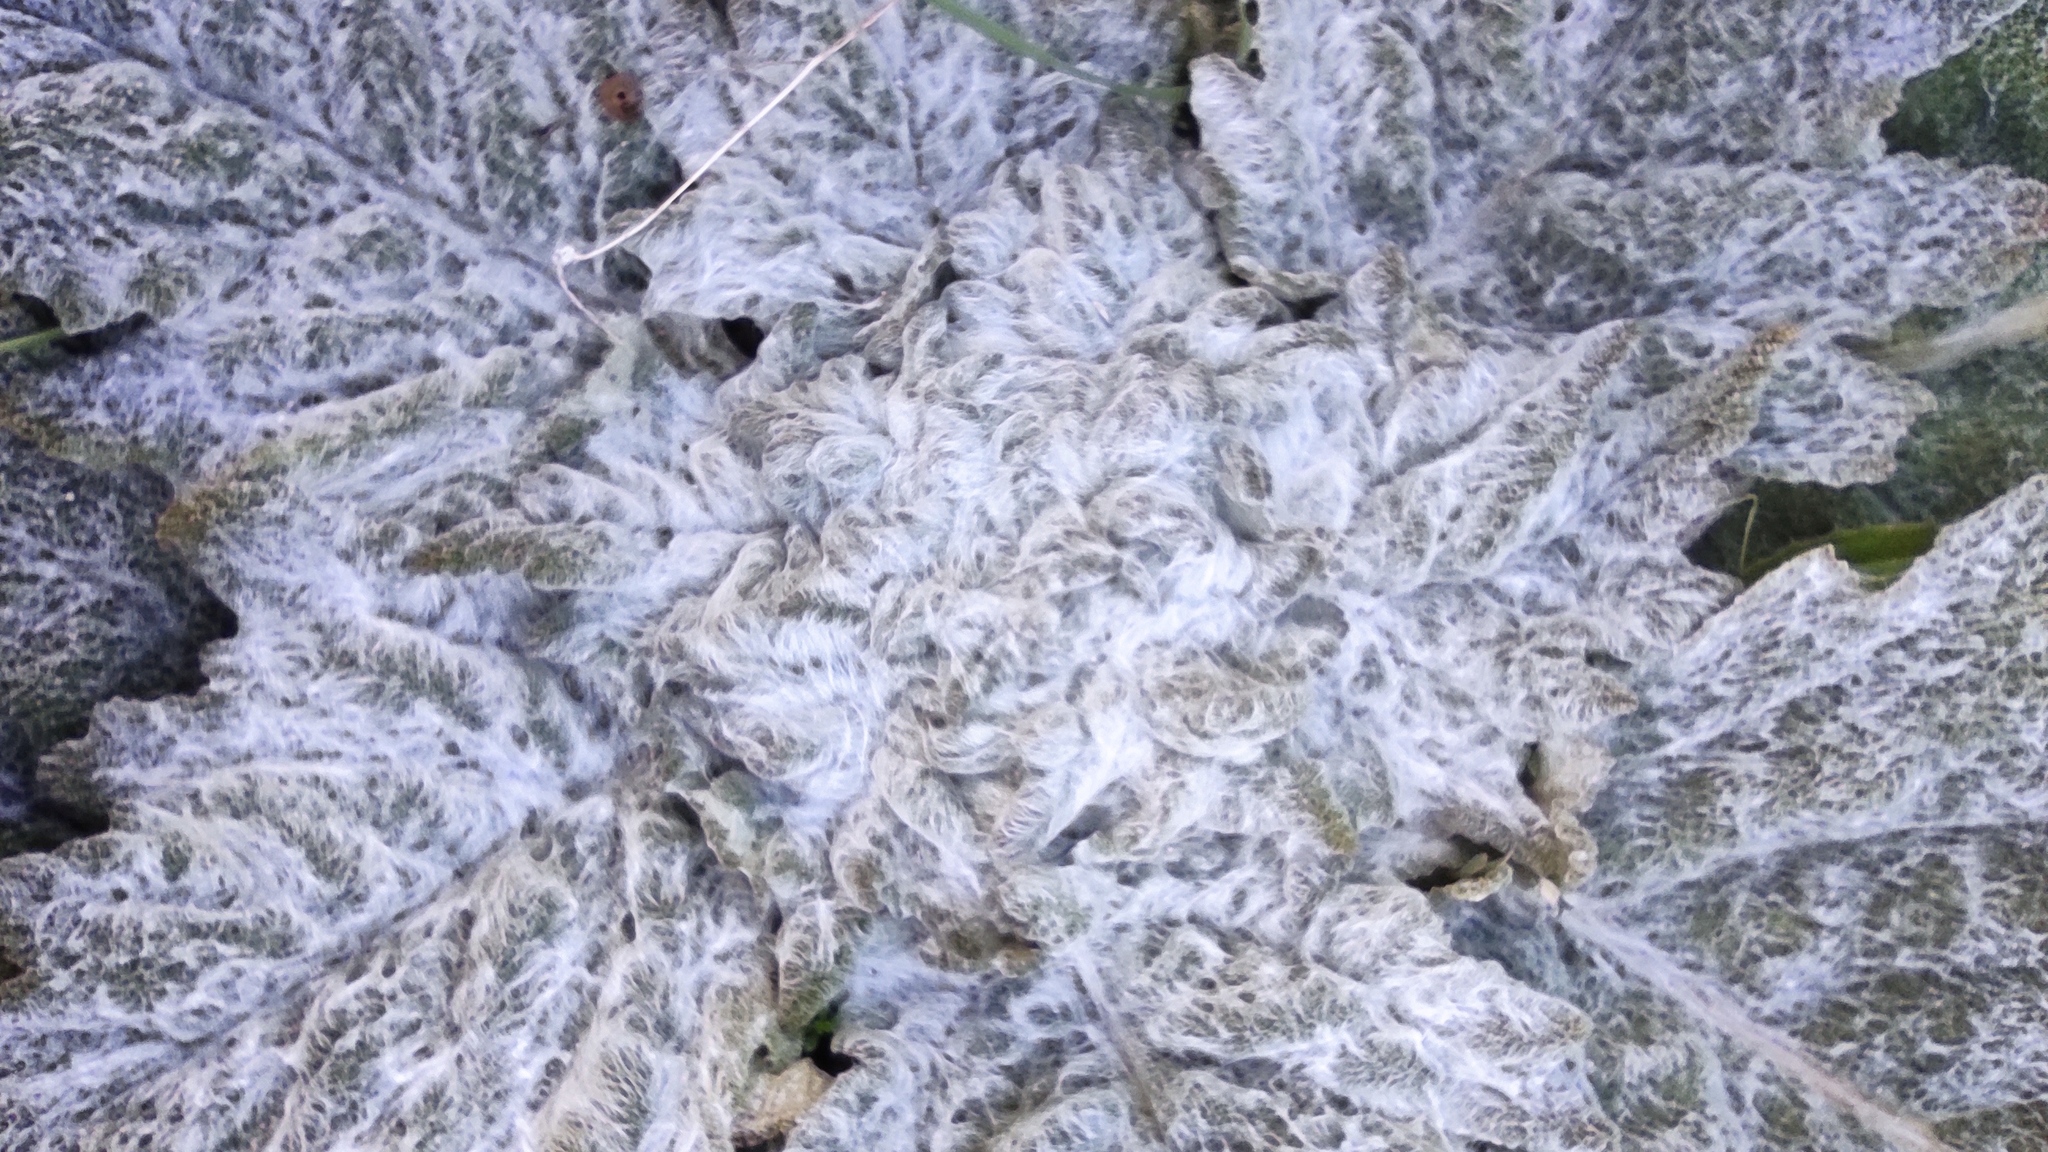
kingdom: Plantae
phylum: Tracheophyta
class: Magnoliopsida
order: Lamiales
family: Lamiaceae
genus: Salvia
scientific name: Salvia argentea
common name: Silver sage
